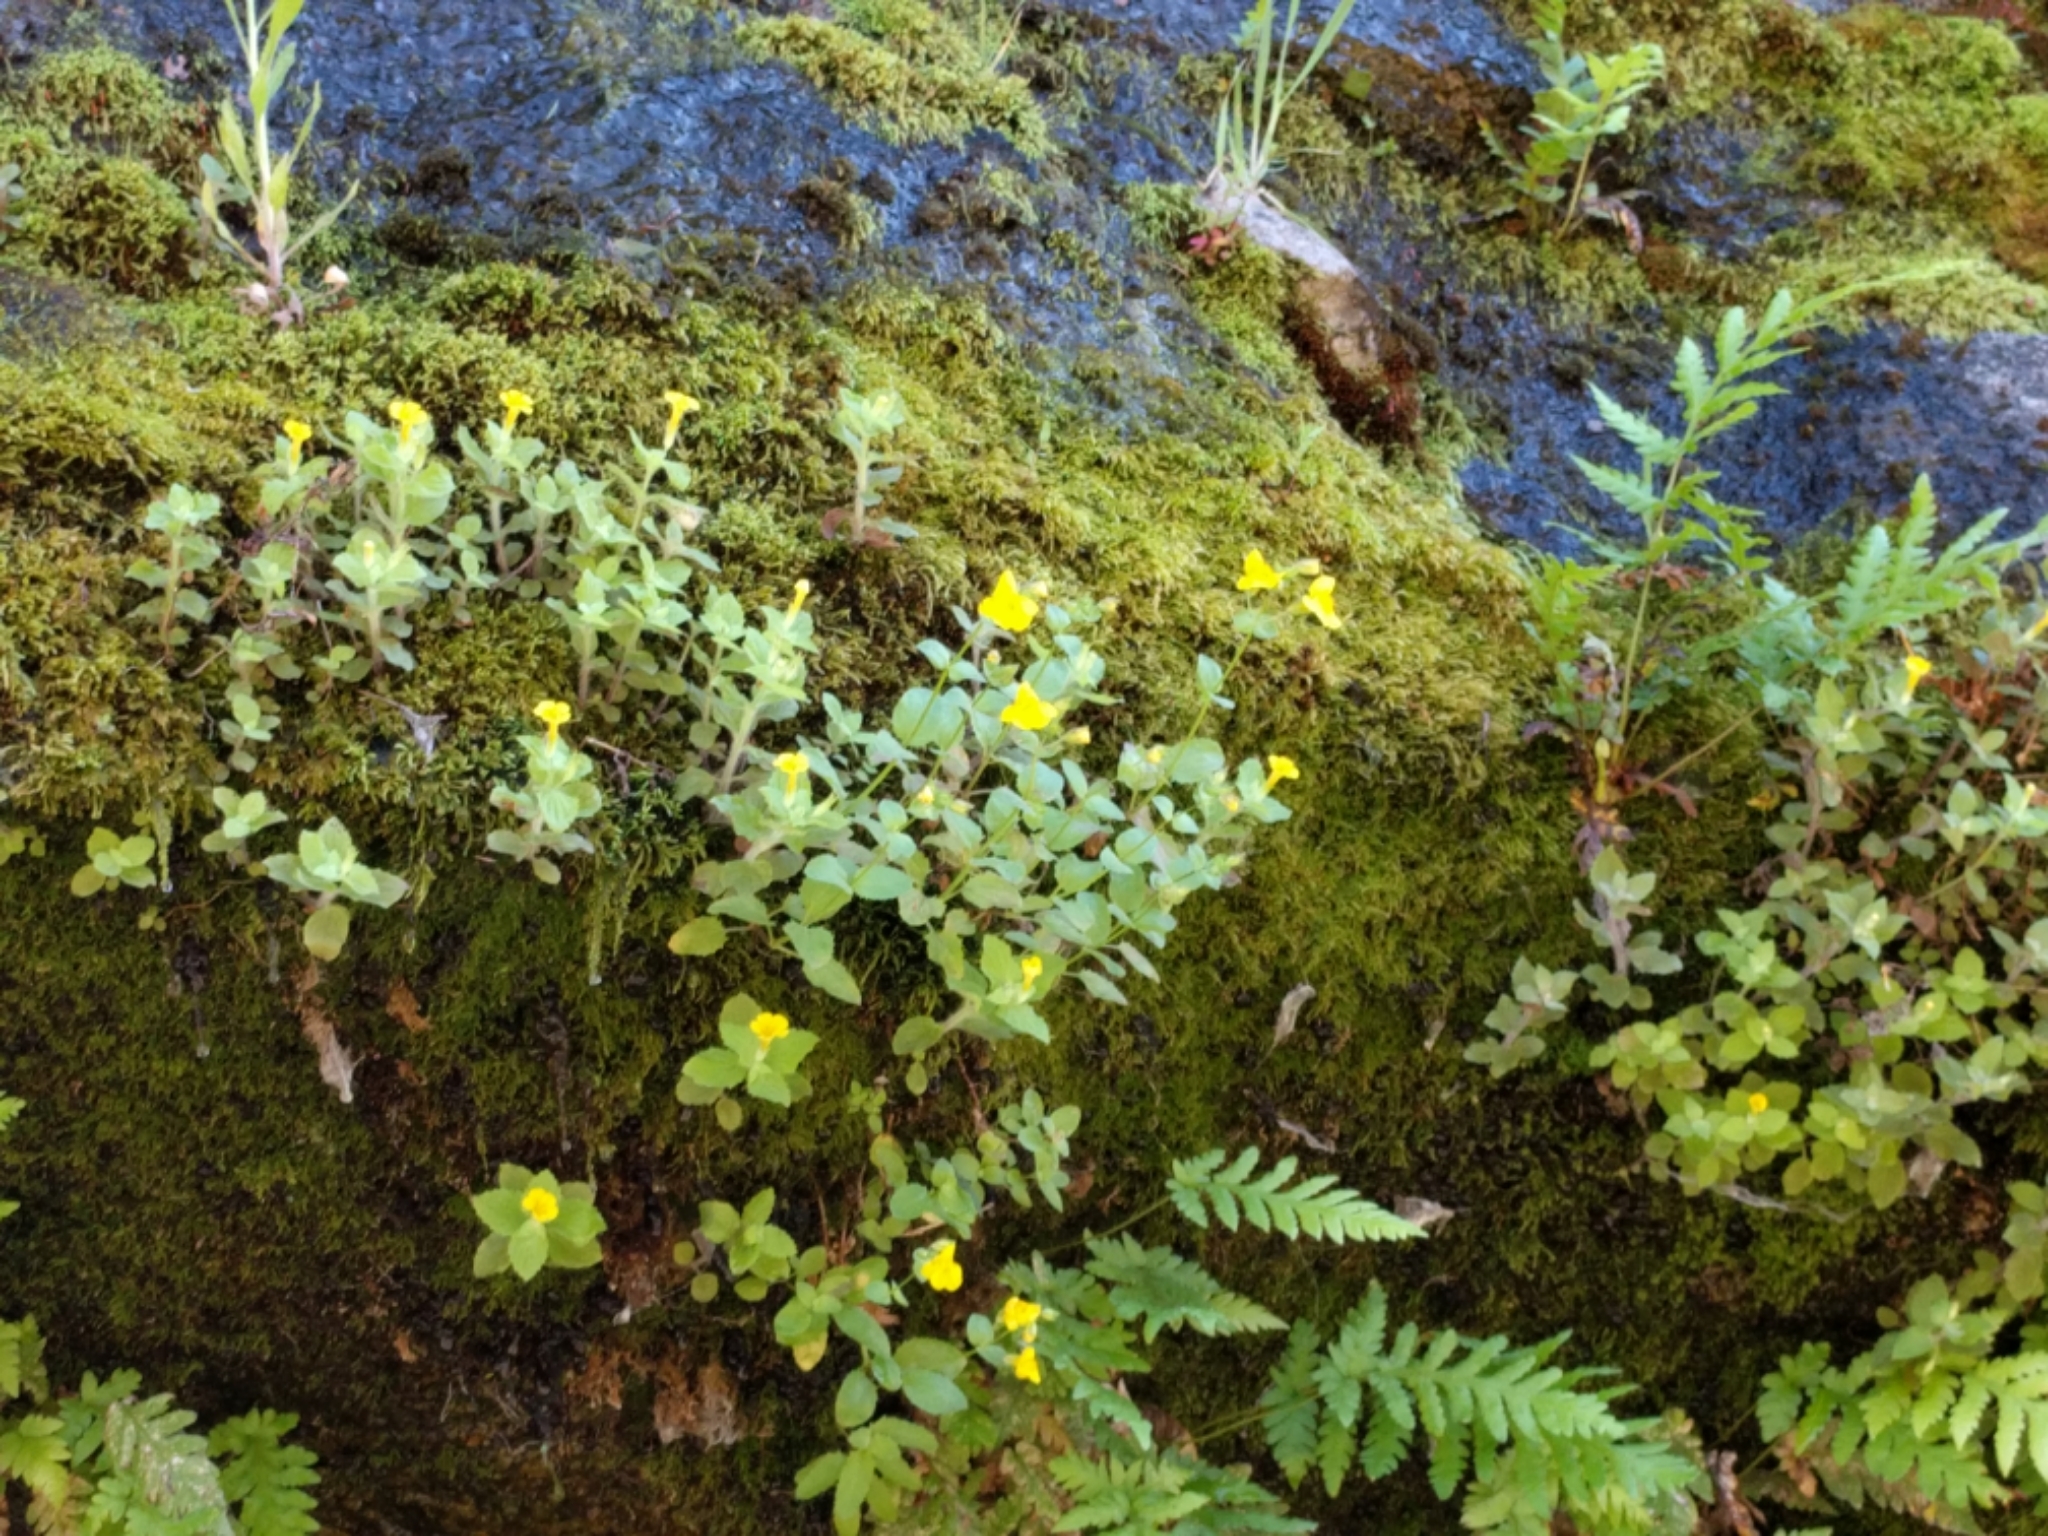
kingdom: Plantae
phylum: Tracheophyta
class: Magnoliopsida
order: Lamiales
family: Phrymaceae
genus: Erythranthe
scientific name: Erythranthe guttata
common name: Monkeyflower
